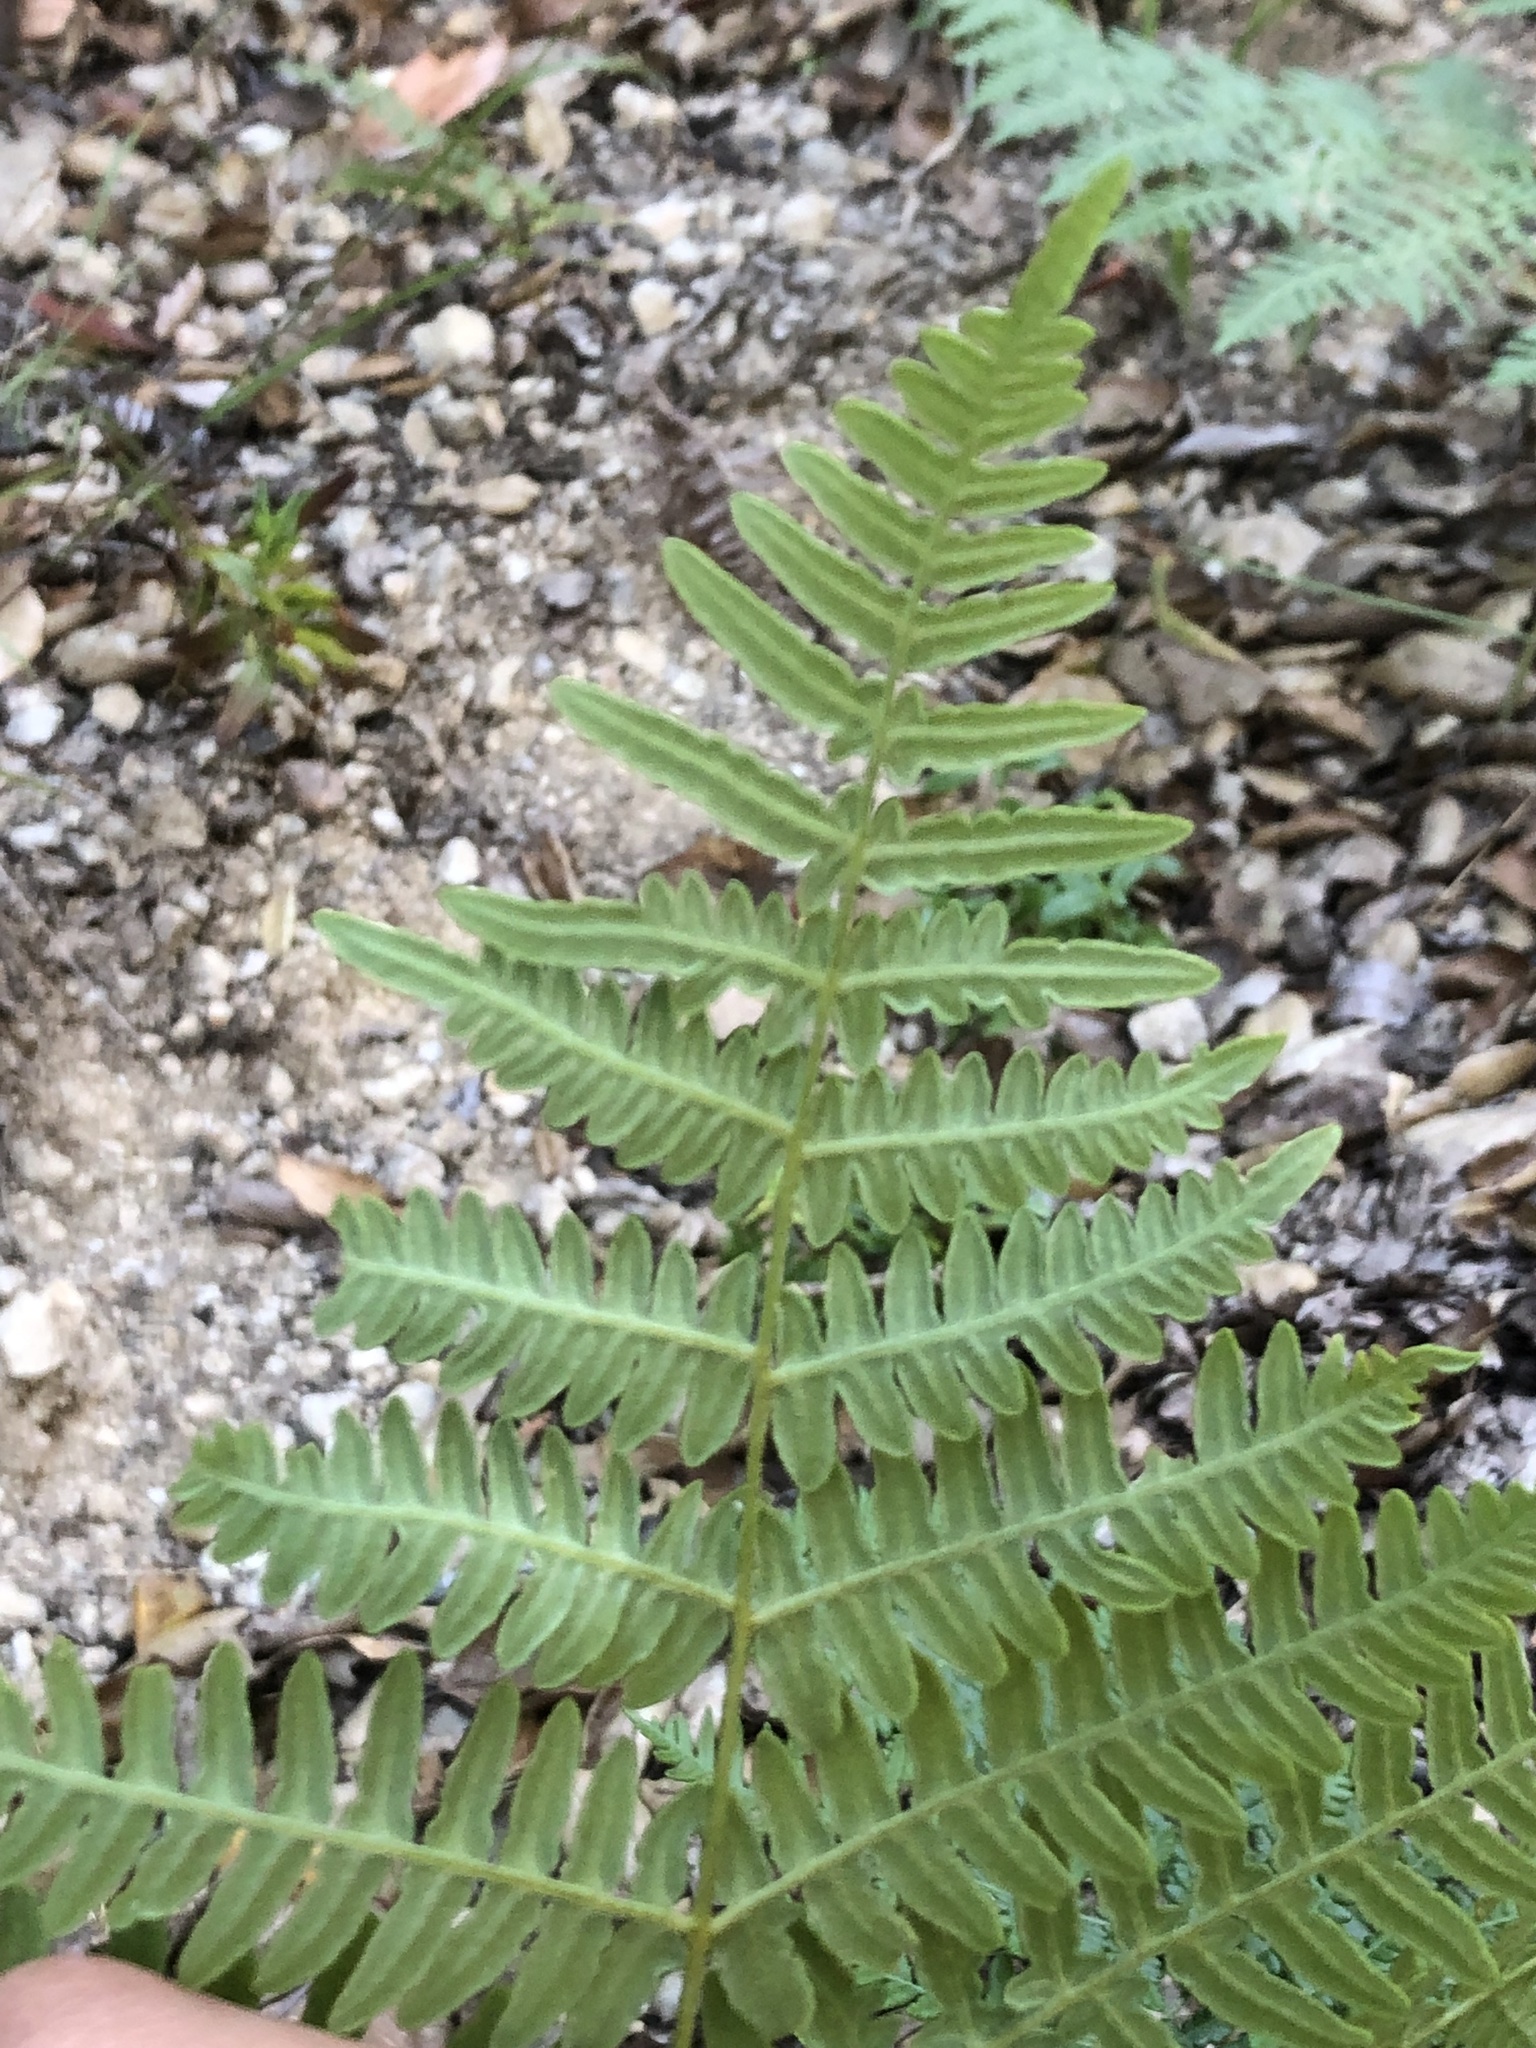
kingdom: Plantae
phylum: Tracheophyta
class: Polypodiopsida
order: Polypodiales
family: Dennstaedtiaceae
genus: Pteridium
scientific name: Pteridium aquilinum
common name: Bracken
